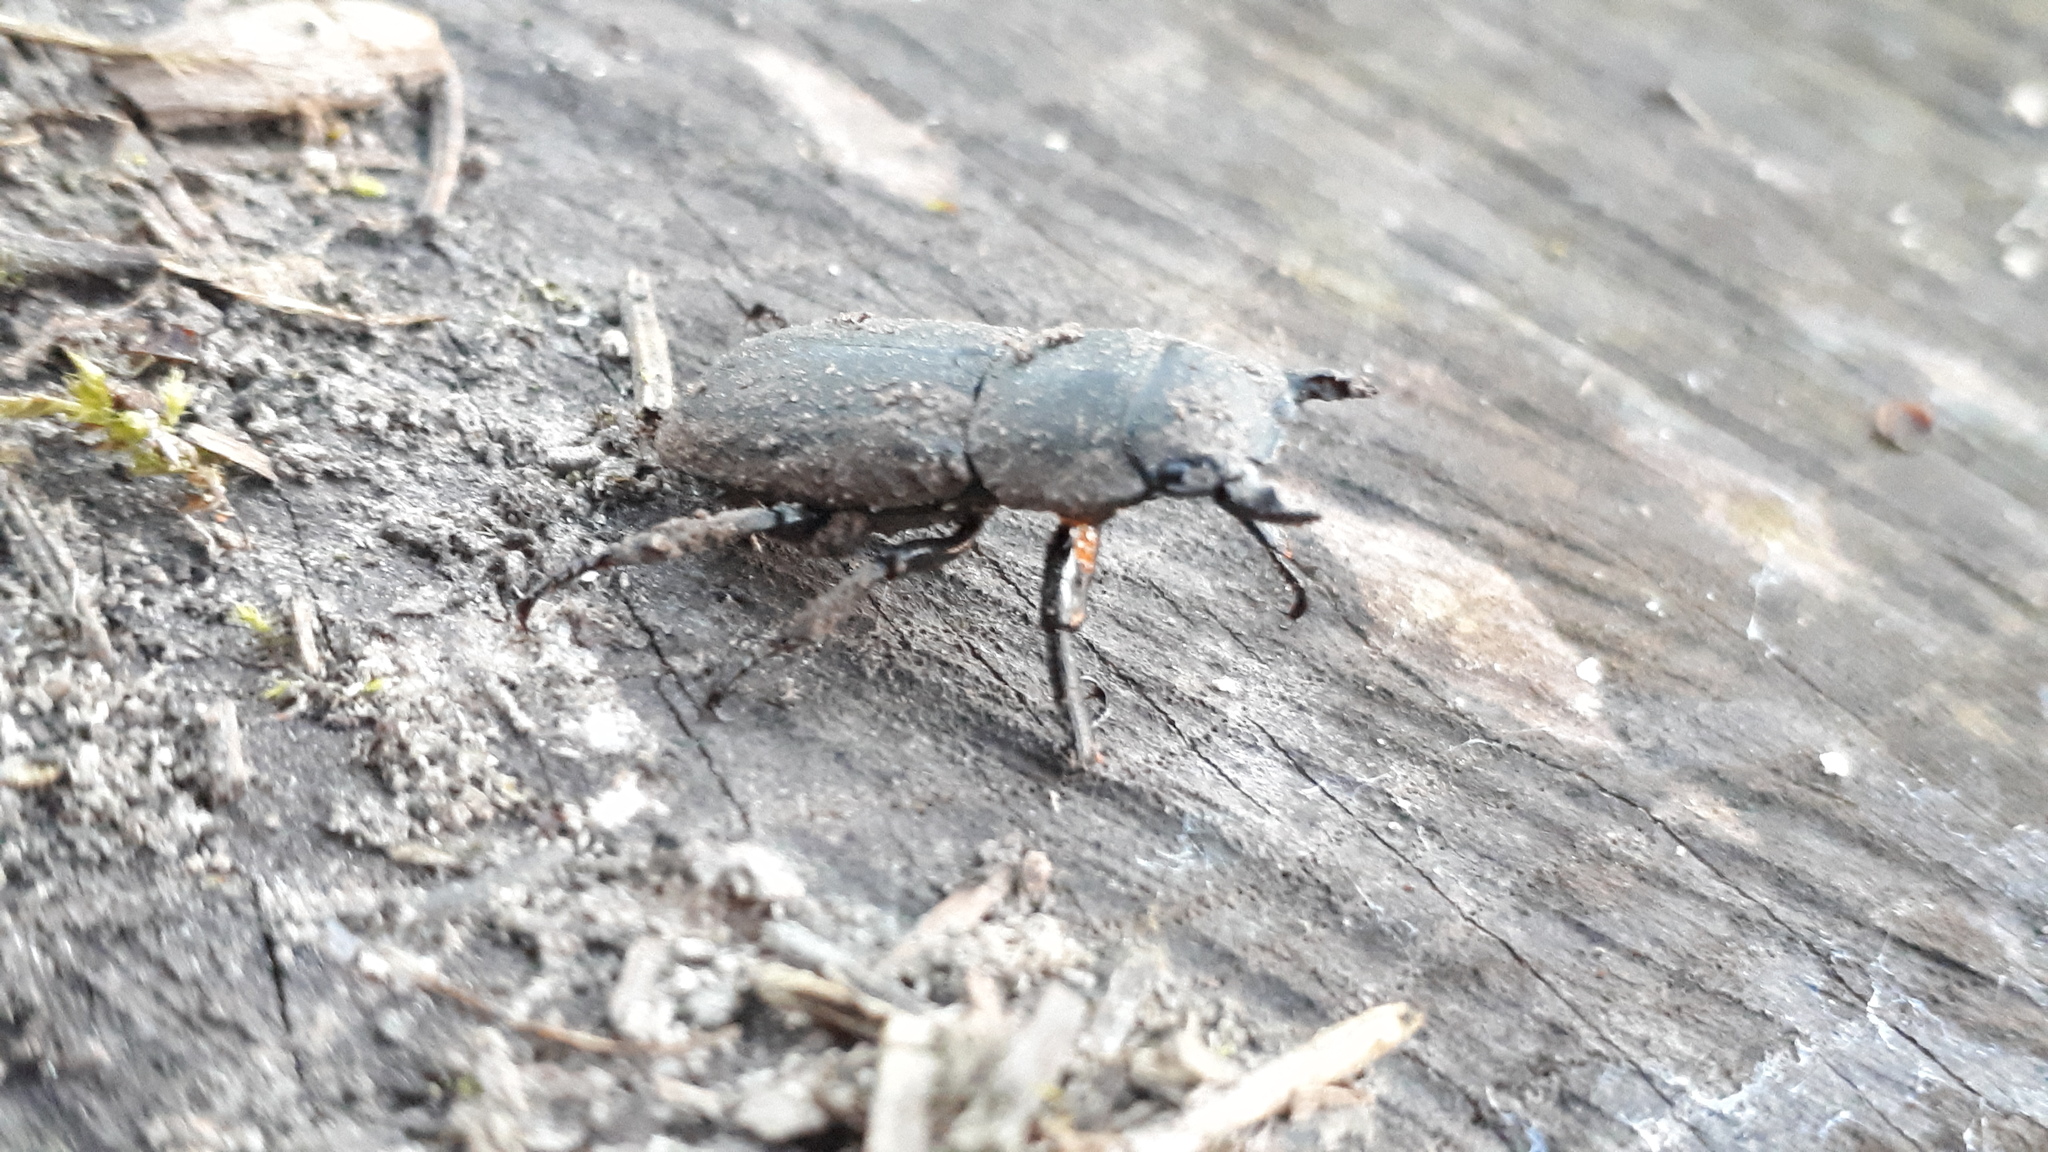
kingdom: Animalia
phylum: Arthropoda
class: Insecta
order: Coleoptera
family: Lucanidae
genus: Dorcus
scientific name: Dorcus parallelipipedus
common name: Lesser stag beetle
